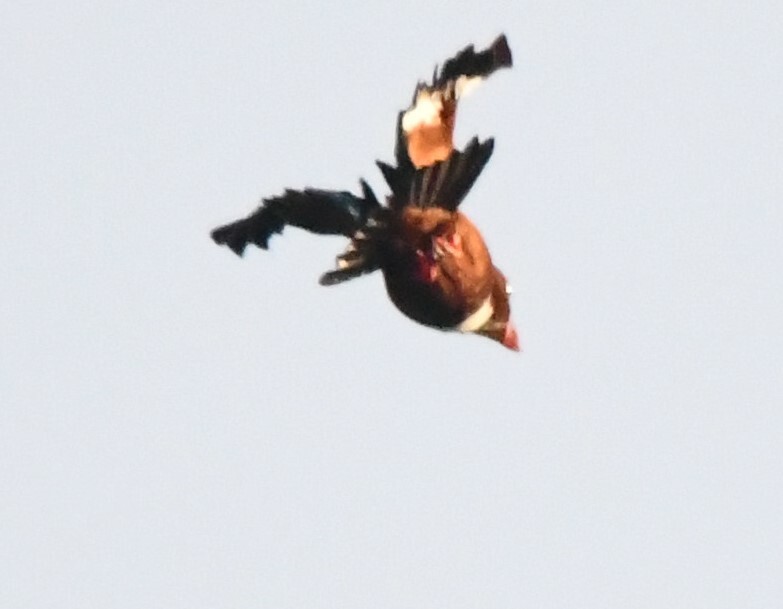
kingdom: Animalia
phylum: Chordata
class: Aves
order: Coraciiformes
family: Alcedinidae
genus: Halcyon
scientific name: Halcyon smyrnensis
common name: White-throated kingfisher
